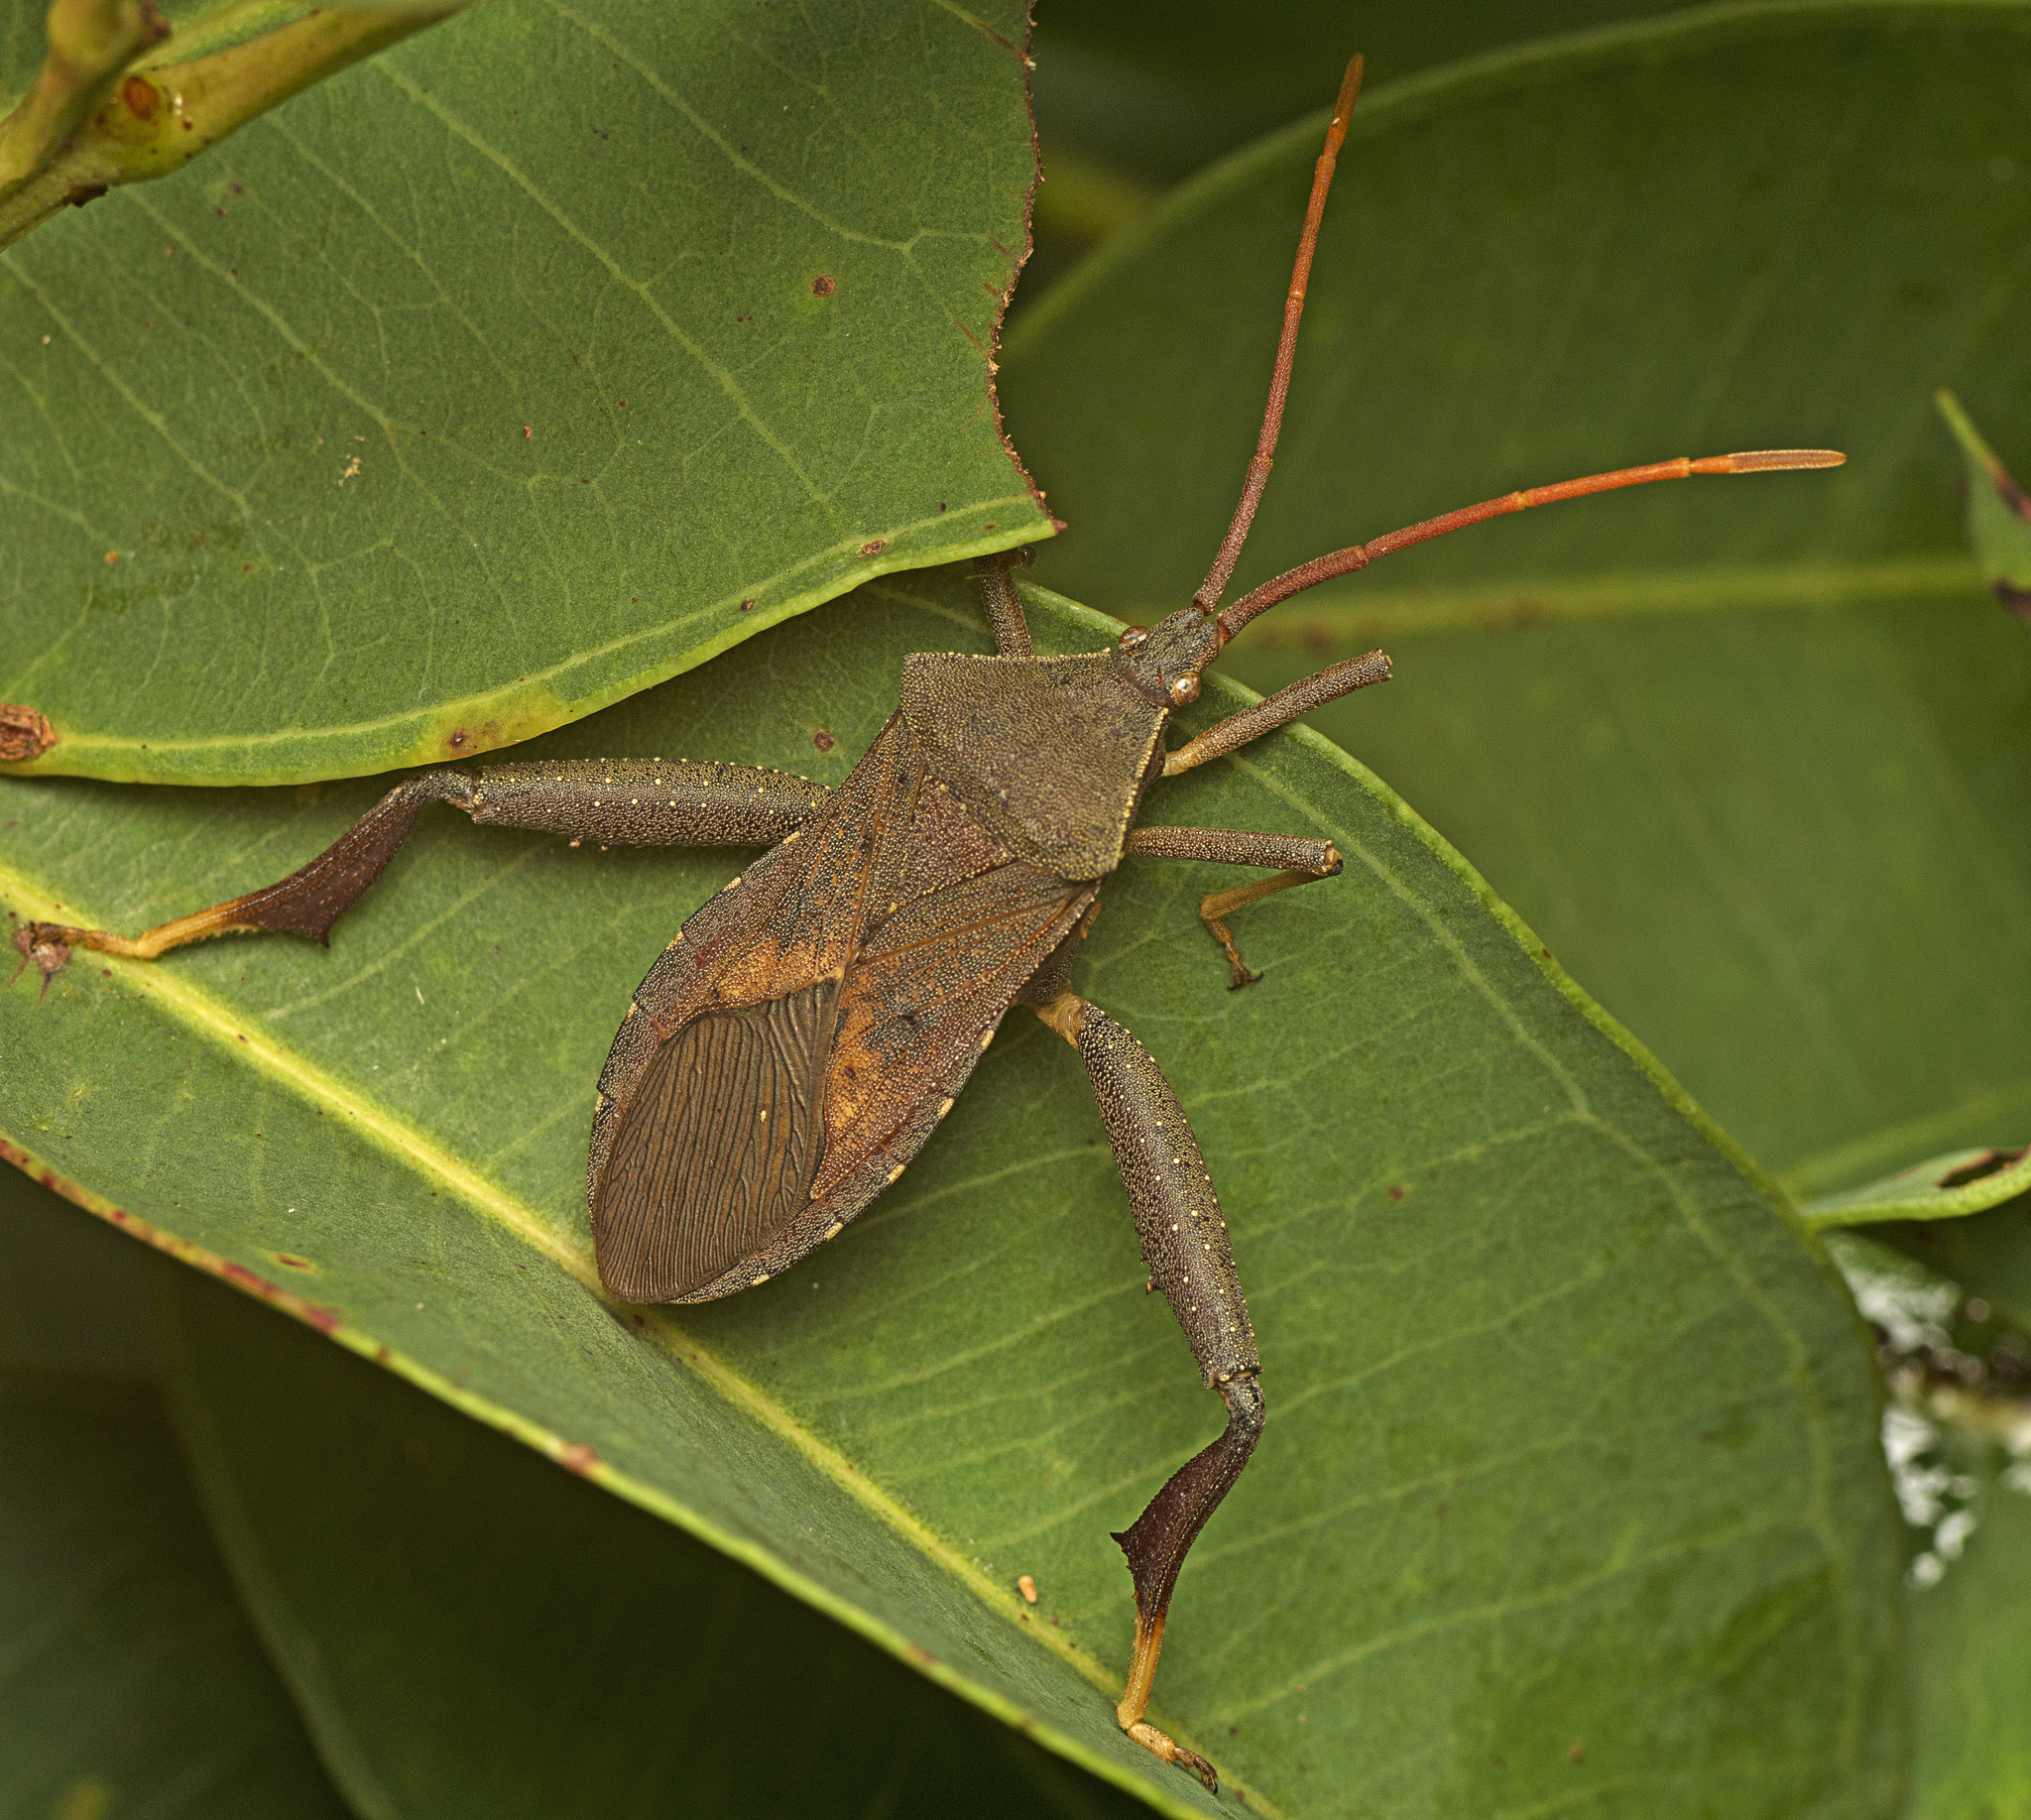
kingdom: Animalia
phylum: Arthropoda
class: Insecta
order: Hemiptera
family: Coreidae
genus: Amorbus
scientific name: Amorbus robustus
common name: Common gum-tree bug
